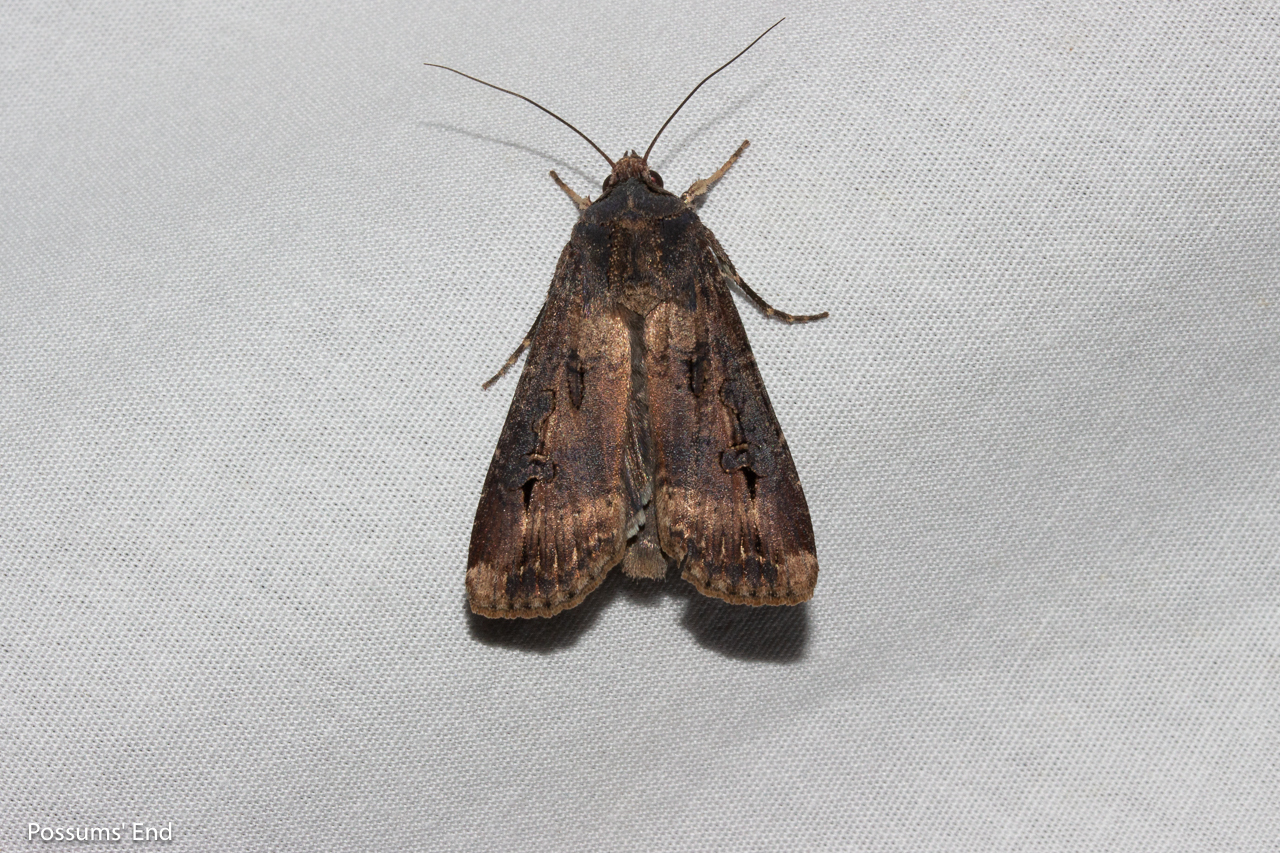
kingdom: Animalia
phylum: Arthropoda
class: Insecta
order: Lepidoptera
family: Noctuidae
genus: Agrotis
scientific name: Agrotis ipsilon
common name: Dark sword-grass
